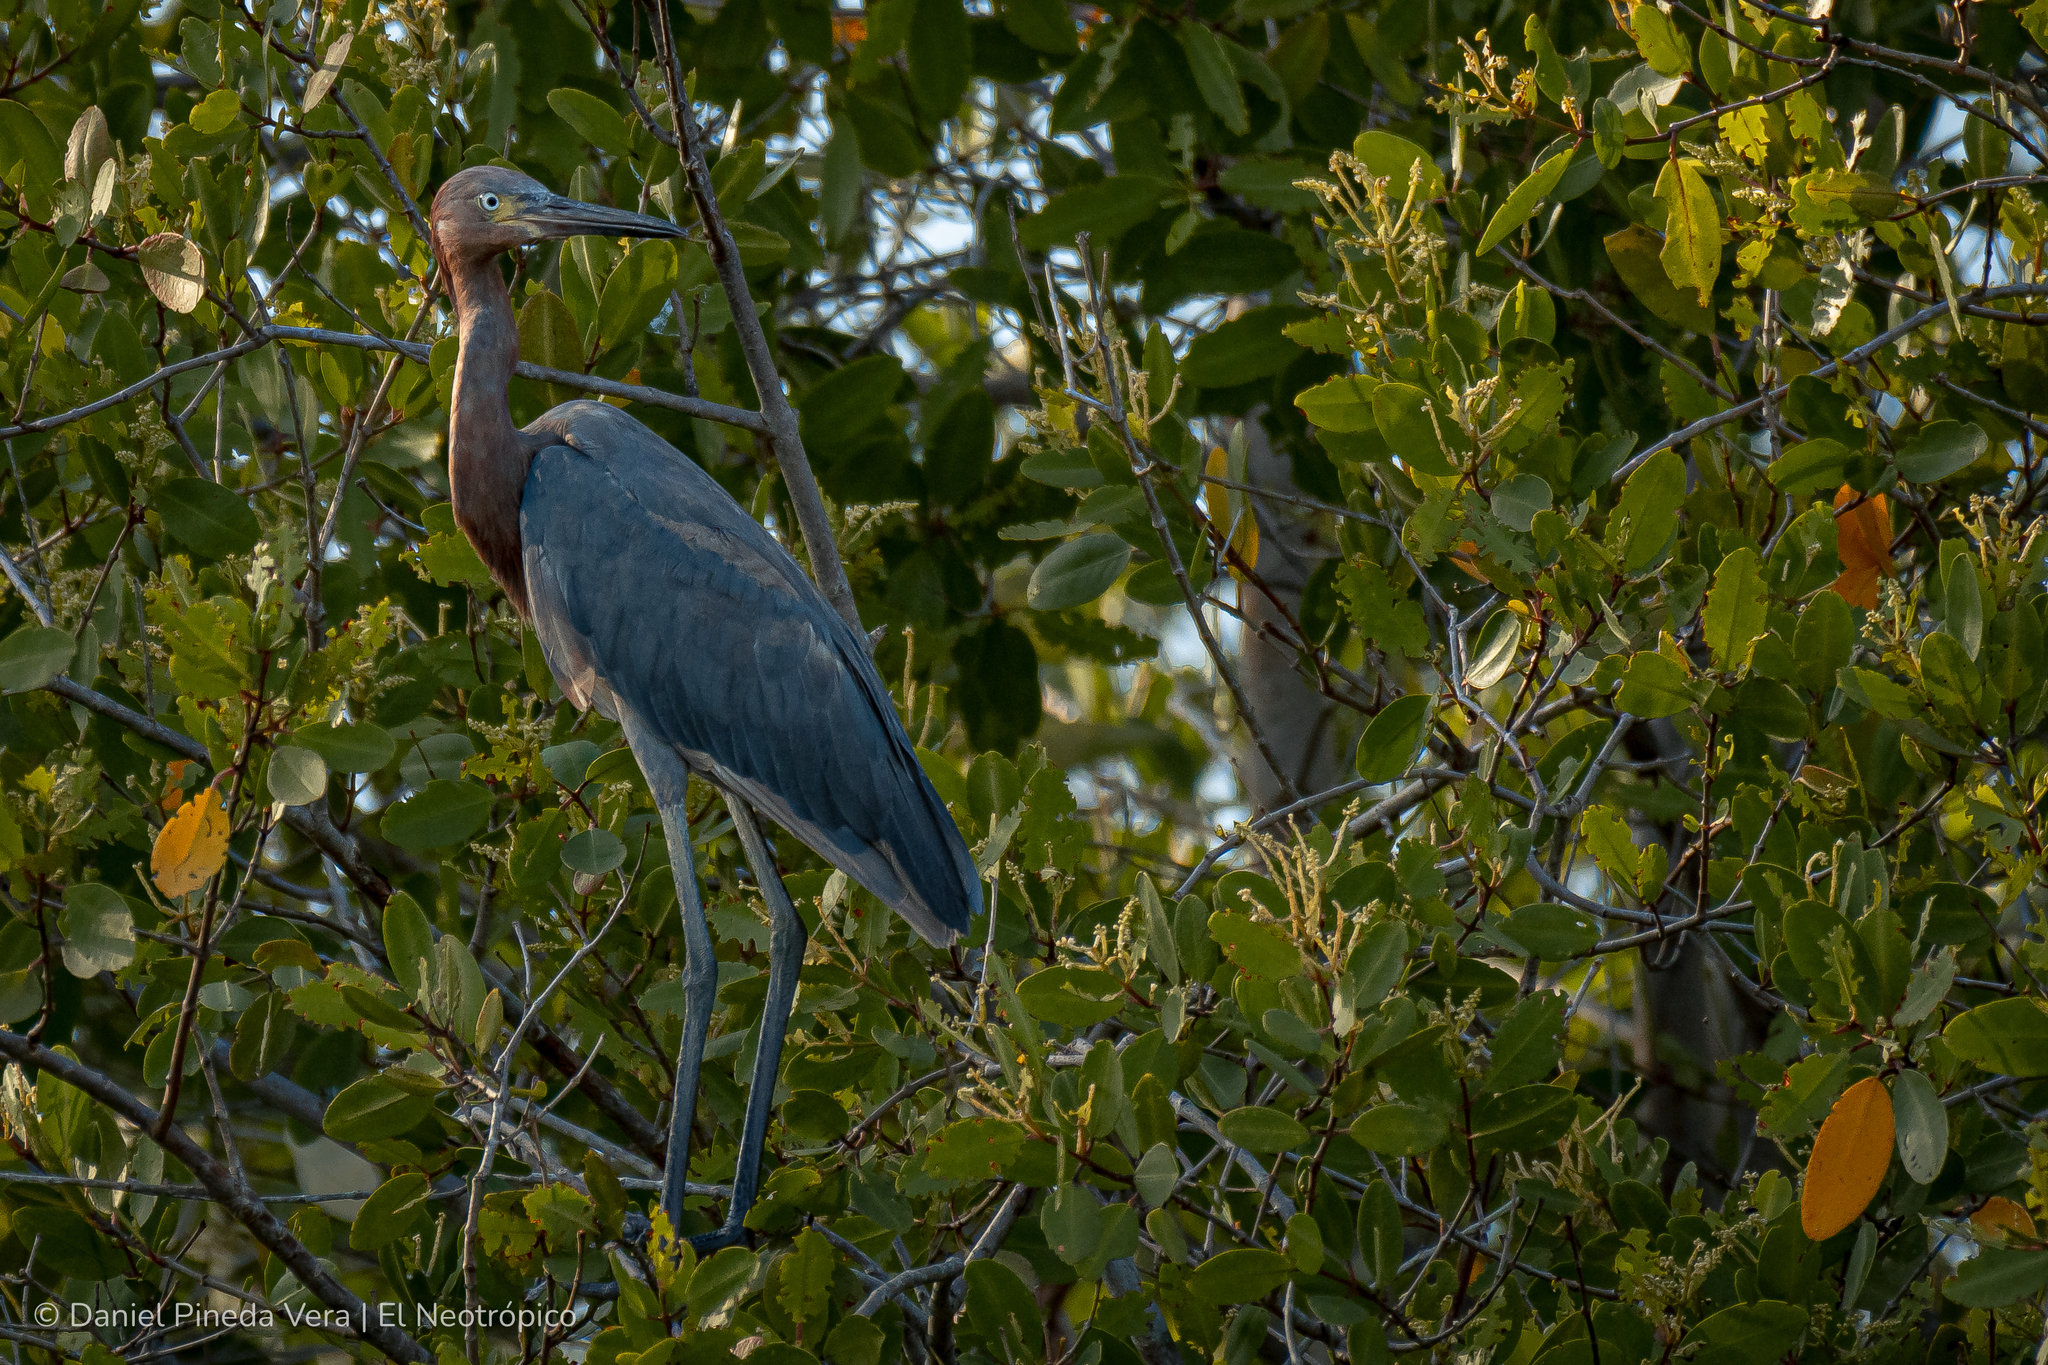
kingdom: Animalia
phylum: Chordata
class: Aves
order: Pelecaniformes
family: Ardeidae
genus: Egretta
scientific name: Egretta rufescens
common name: Reddish egret
